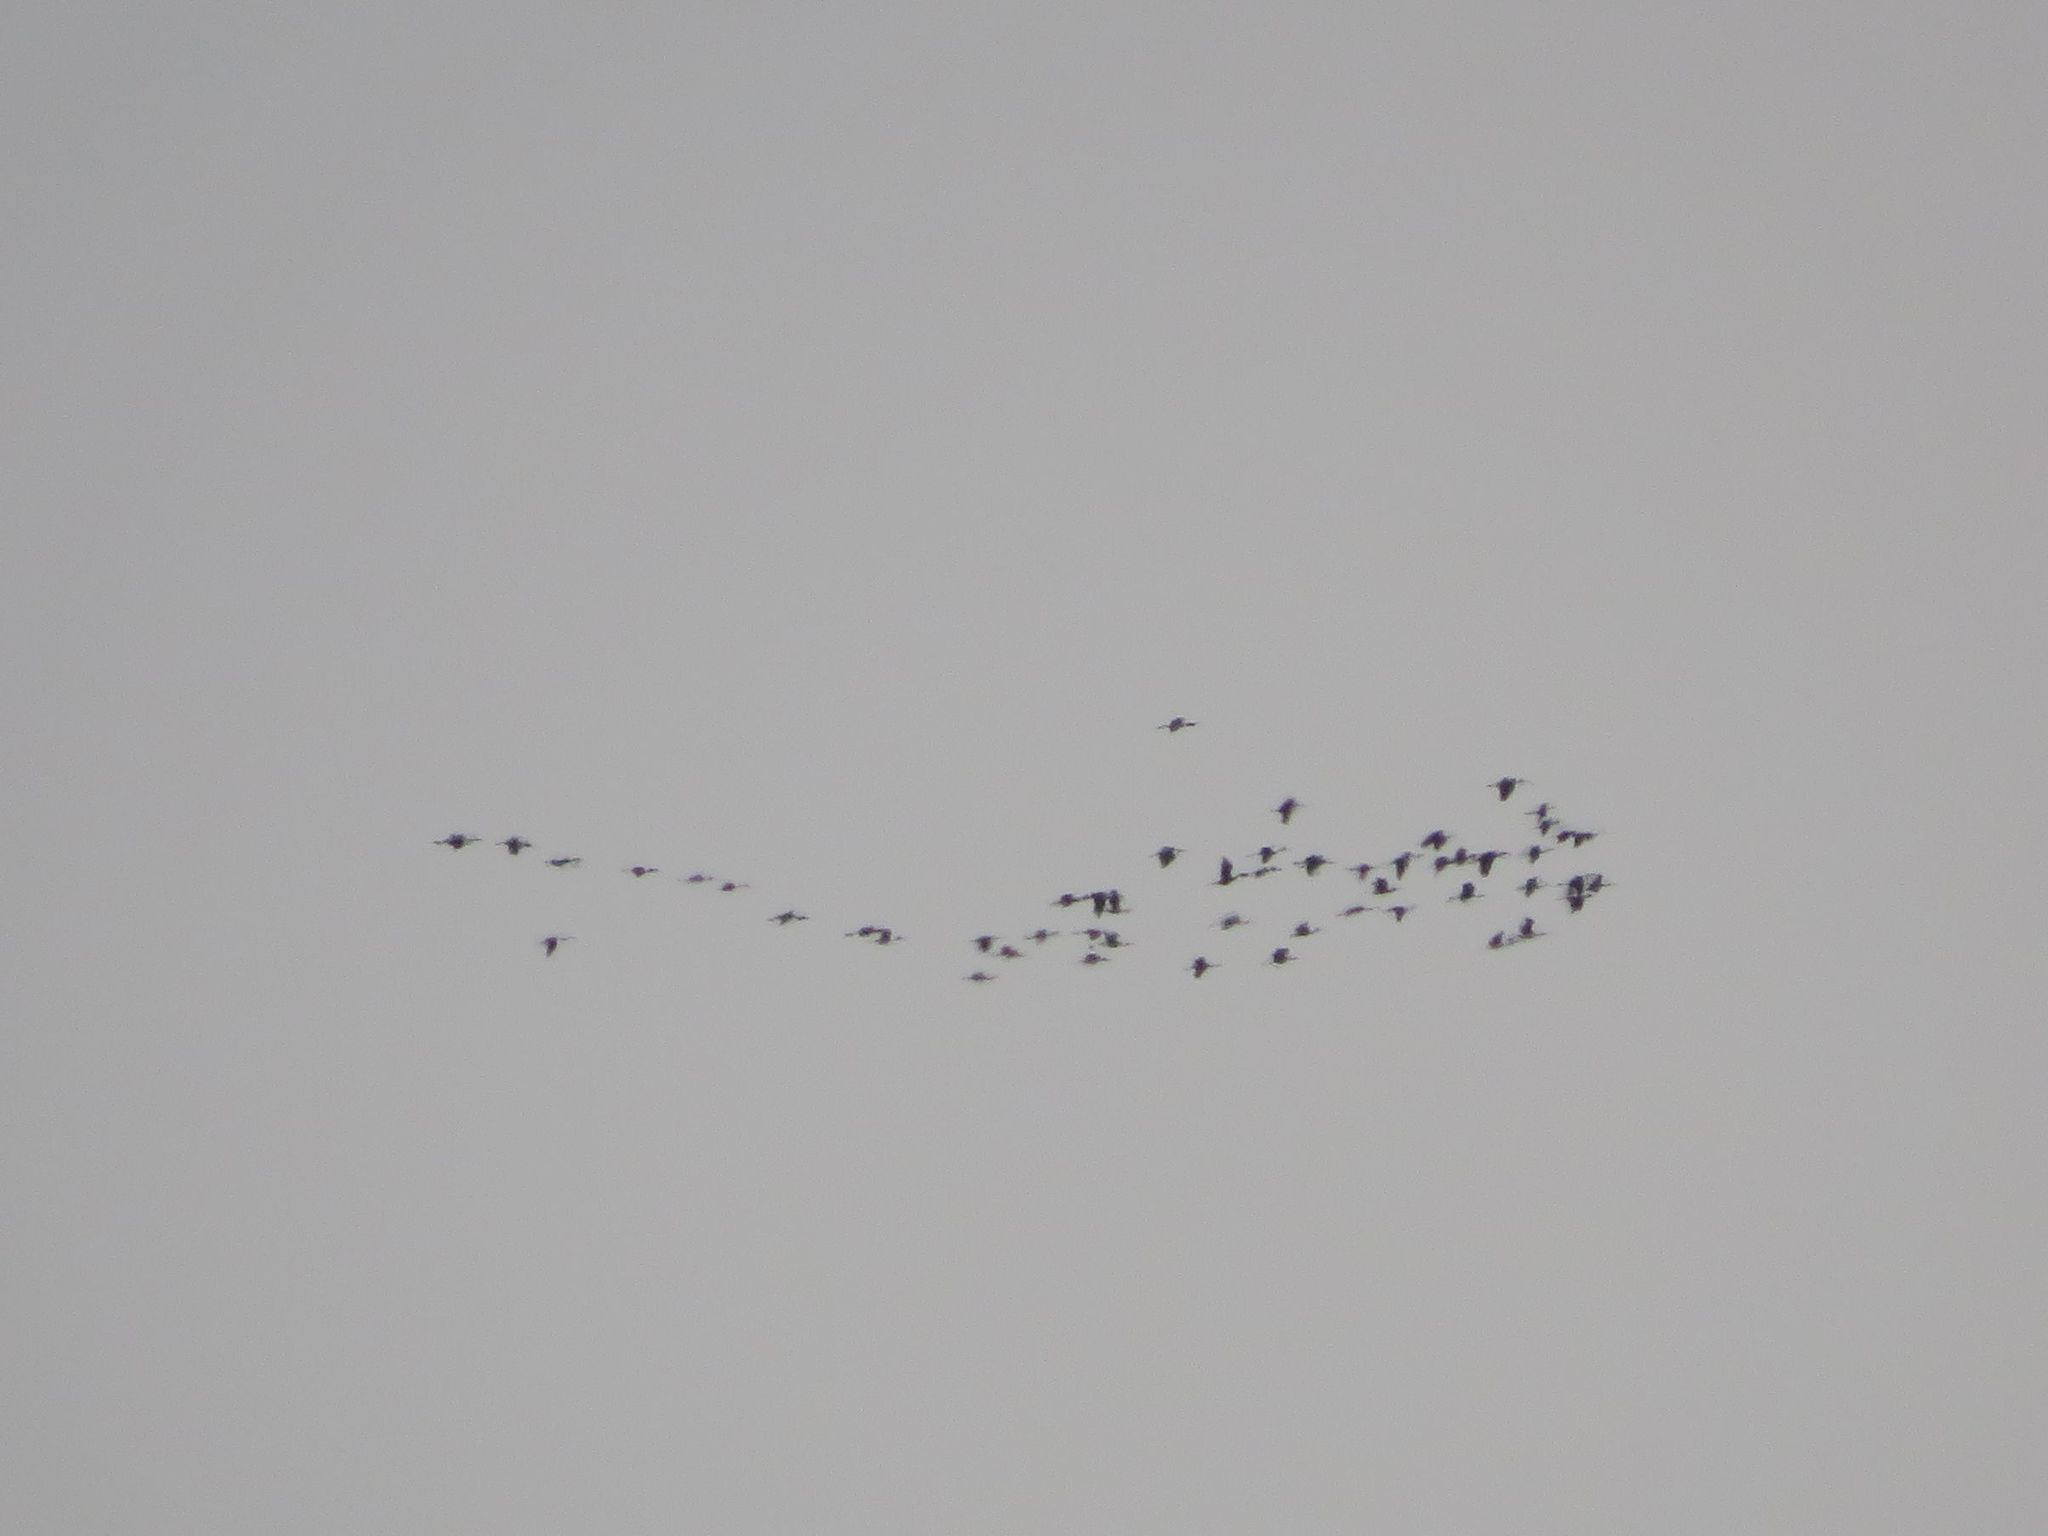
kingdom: Animalia
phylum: Chordata
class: Aves
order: Pelecaniformes
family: Threskiornithidae
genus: Plegadis
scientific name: Plegadis chihi
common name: White-faced ibis
